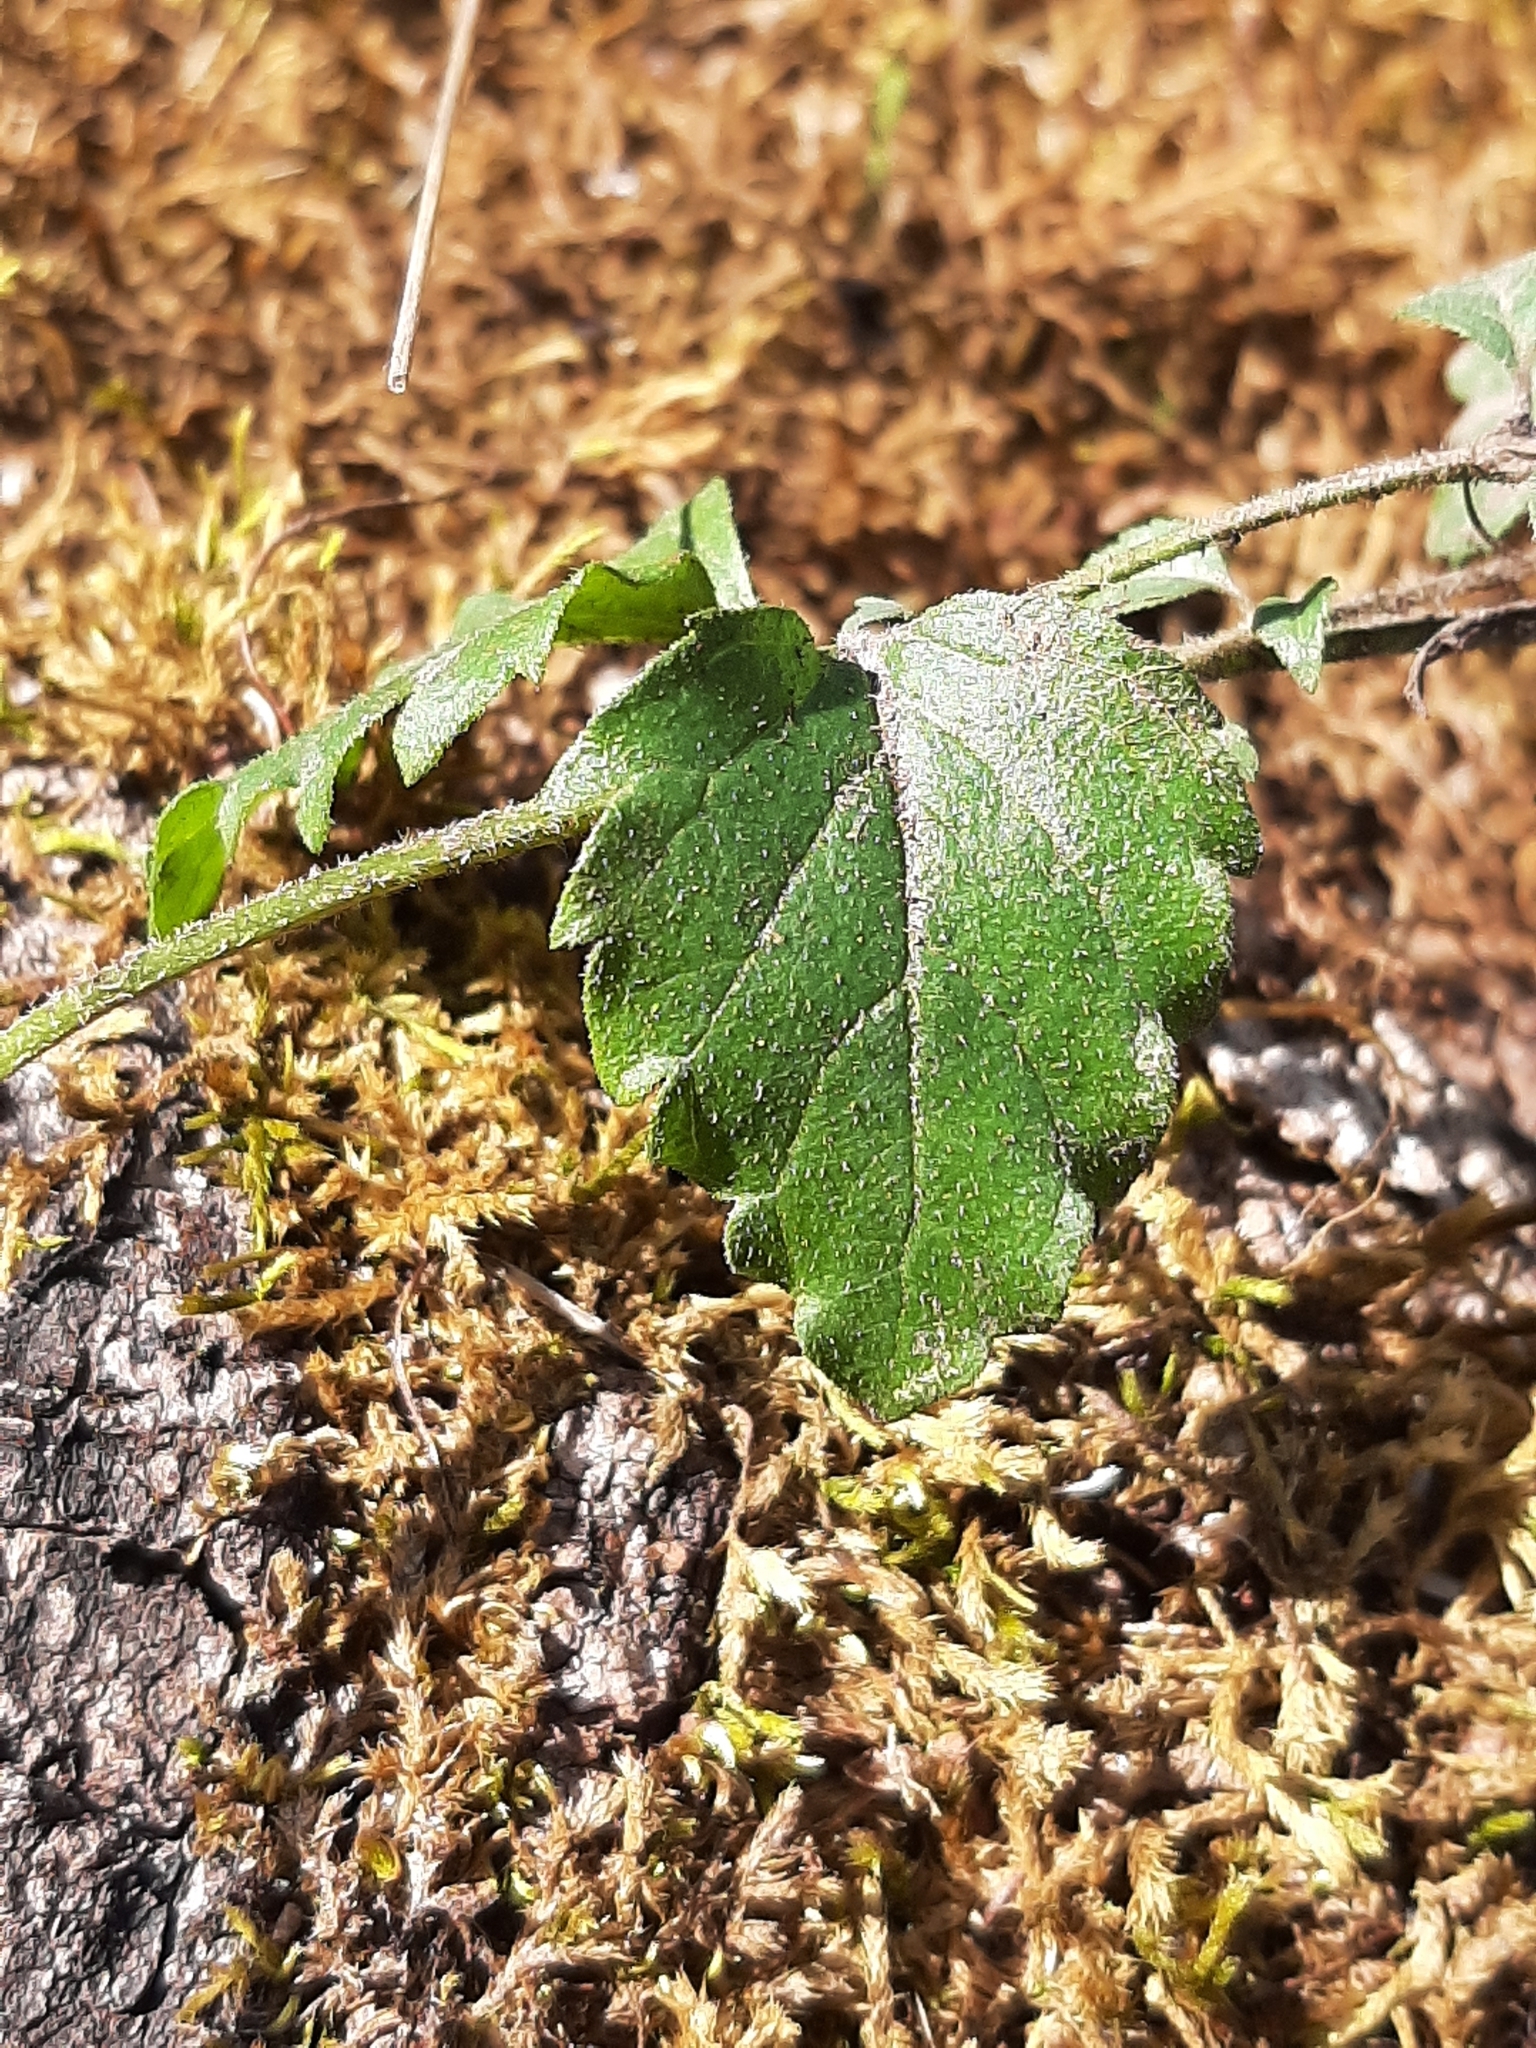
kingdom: Plantae
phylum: Tracheophyta
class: Magnoliopsida
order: Lamiales
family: Lamiaceae
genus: Micromeria
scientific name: Micromeria douglasii
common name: Yerba buena
